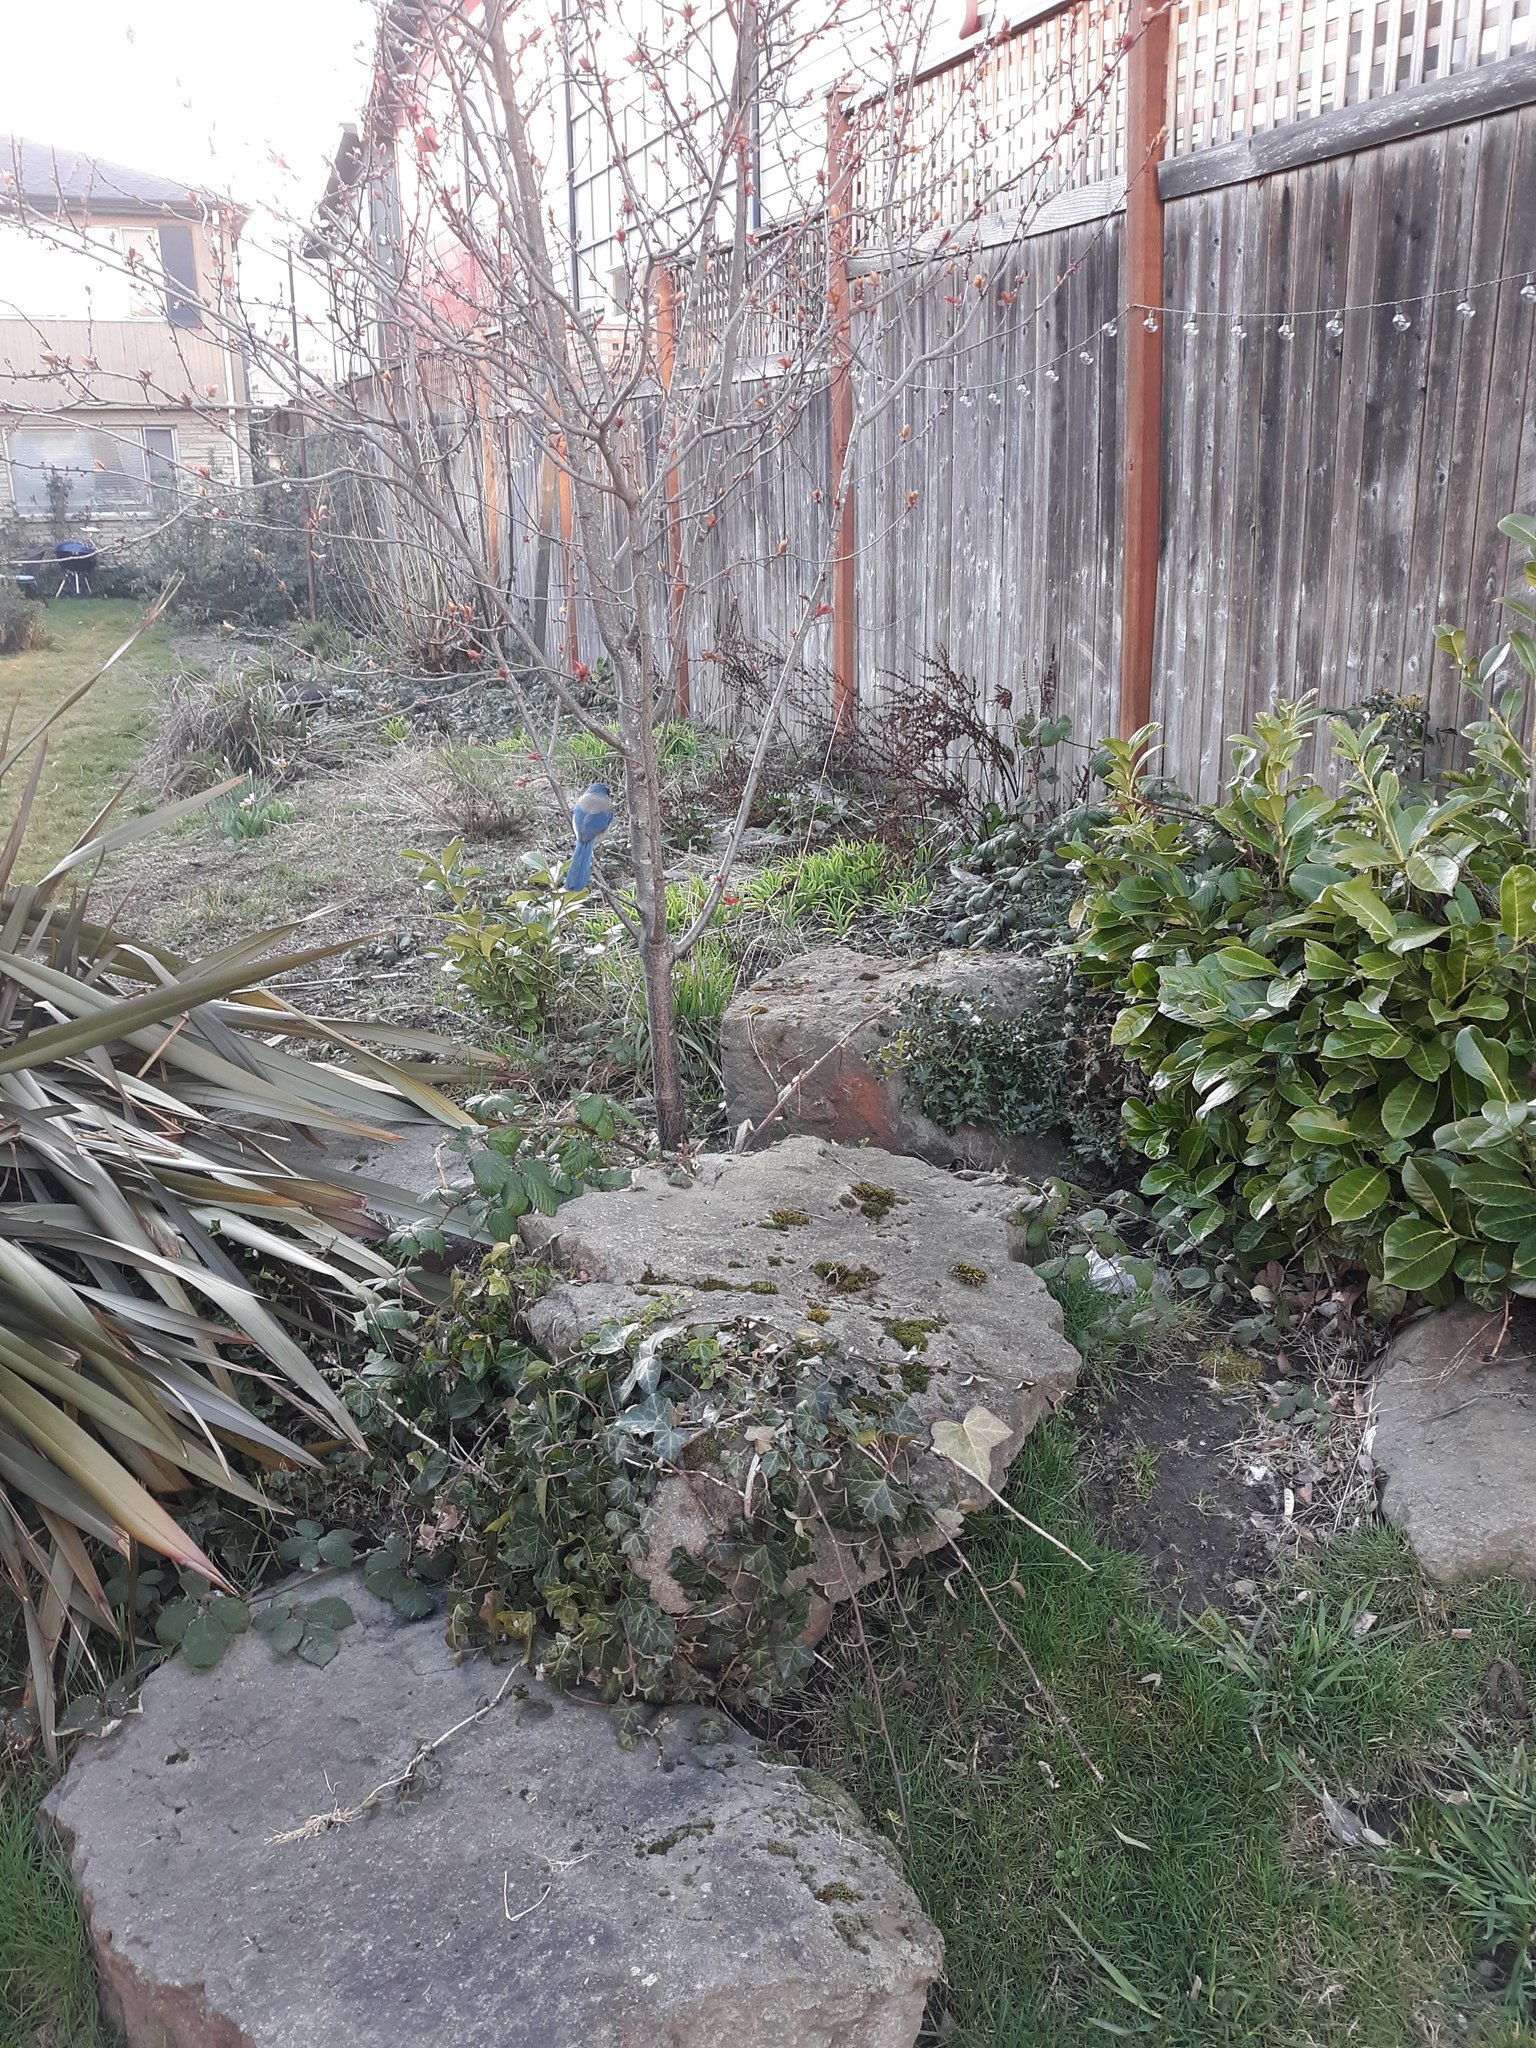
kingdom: Animalia
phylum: Chordata
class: Aves
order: Passeriformes
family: Corvidae
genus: Aphelocoma
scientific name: Aphelocoma californica
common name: California scrub-jay
